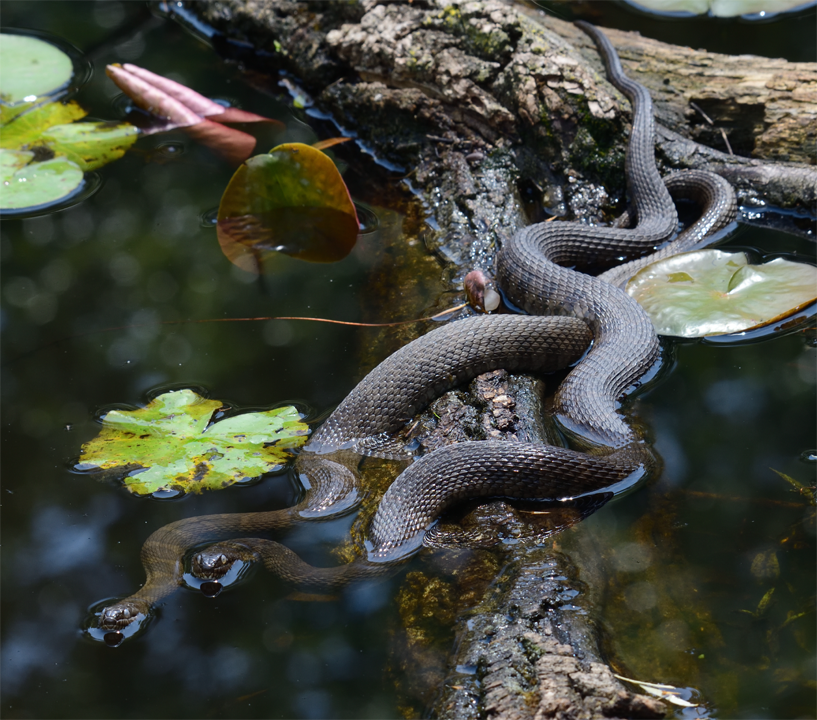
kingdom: Animalia
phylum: Chordata
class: Squamata
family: Colubridae
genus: Nerodia
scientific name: Nerodia sipedon
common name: Northern water snake
